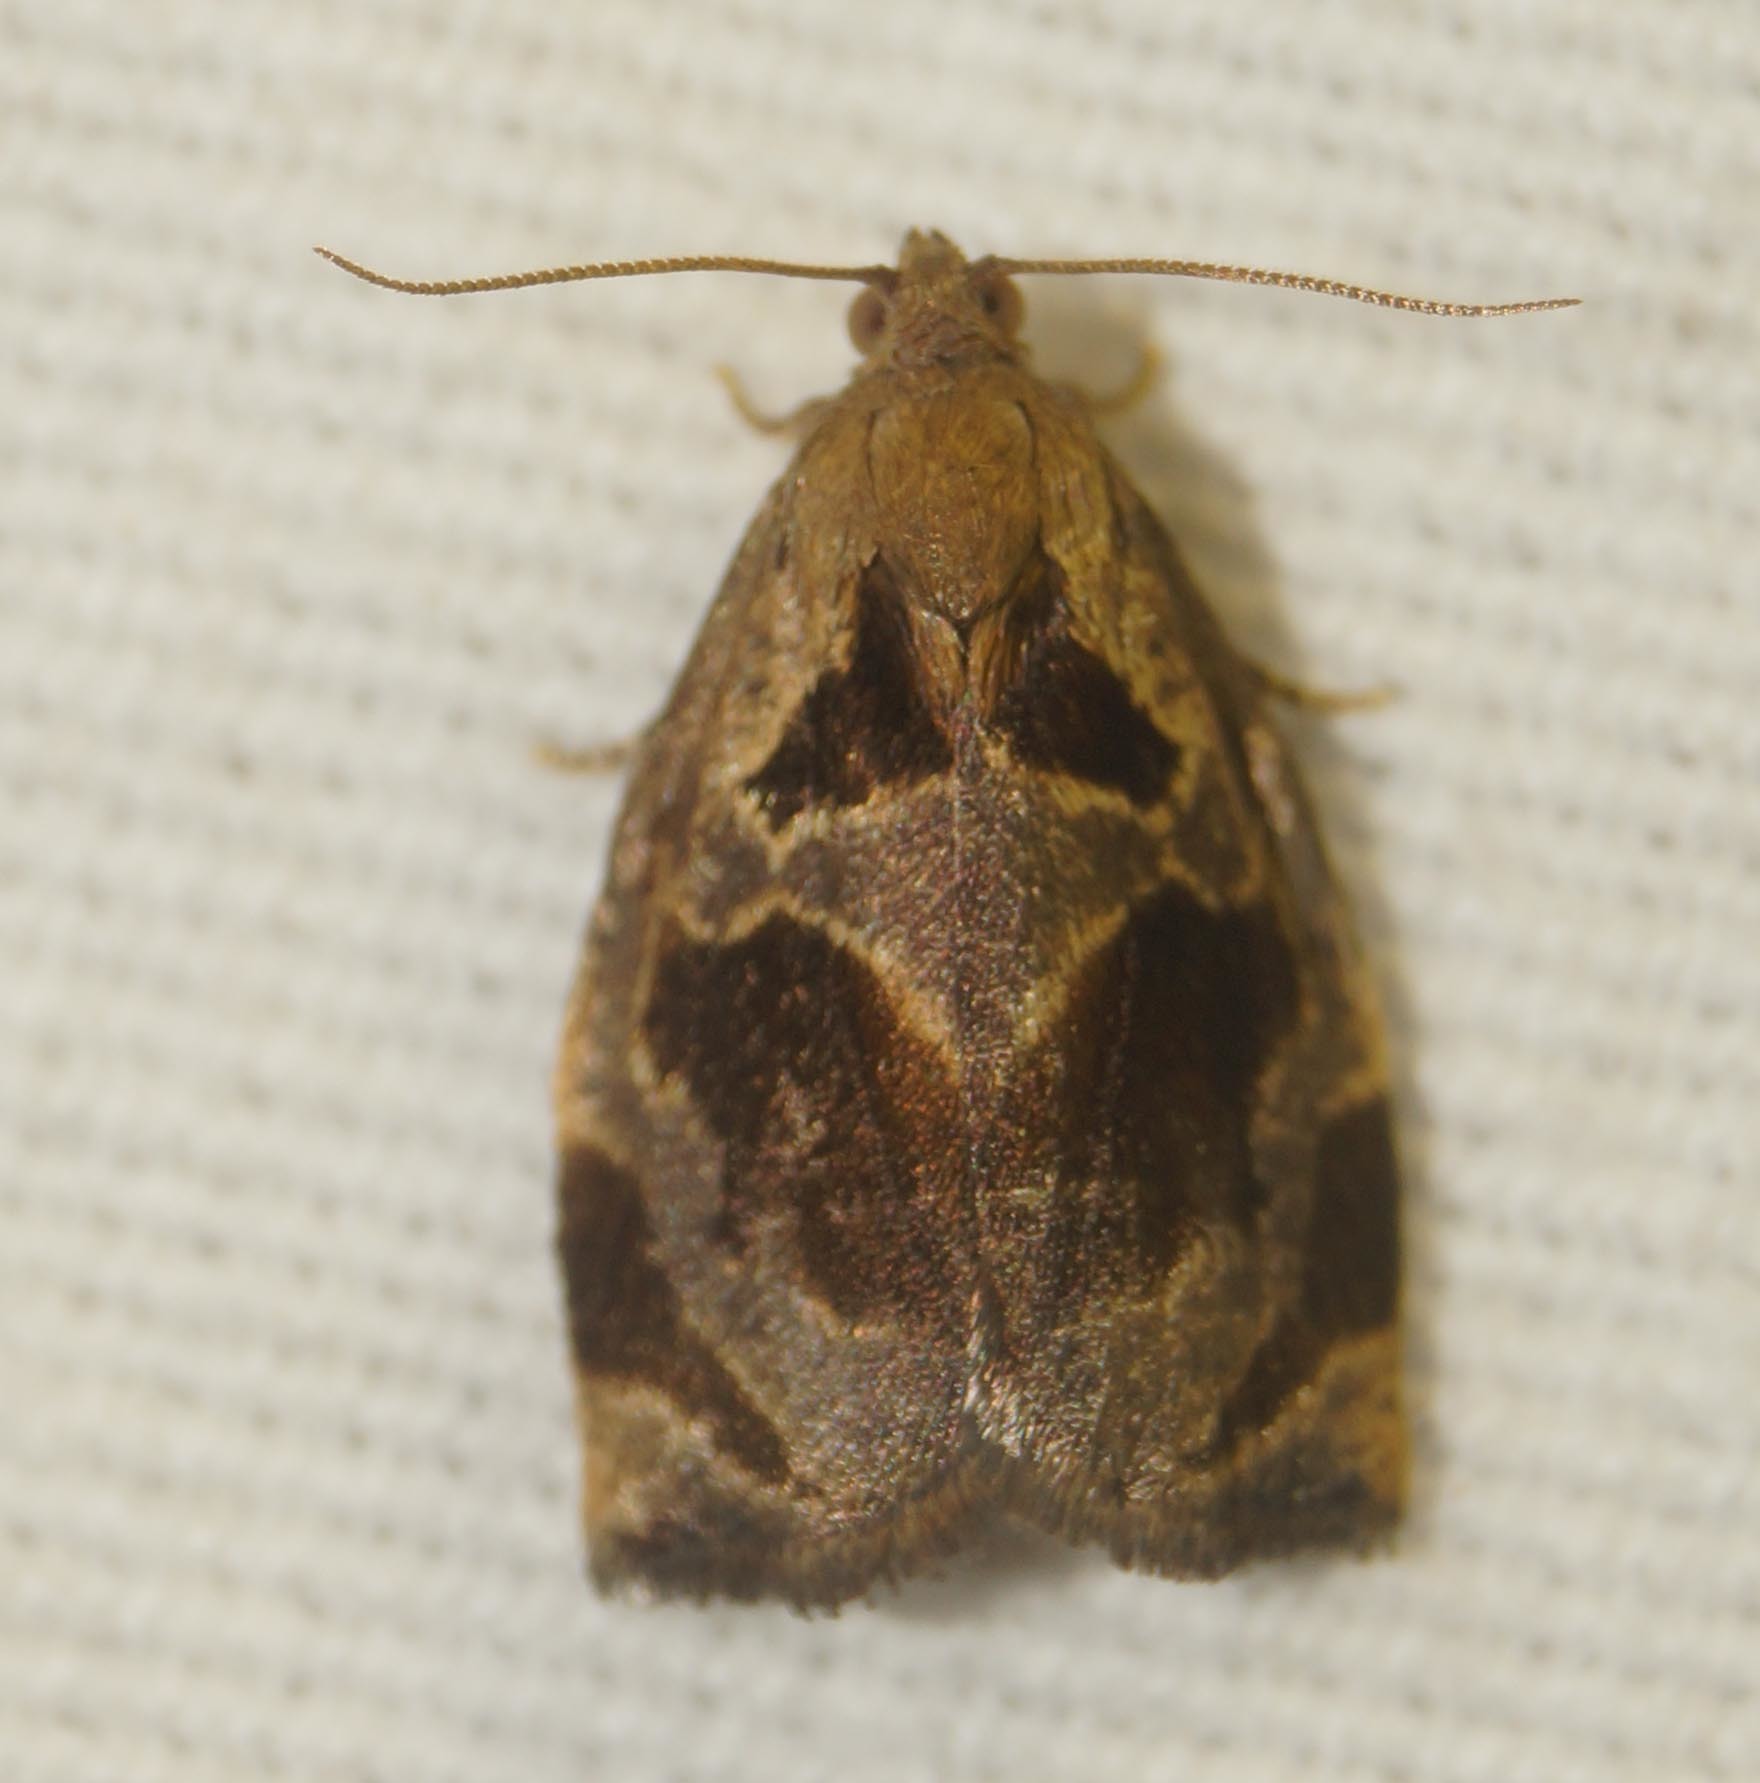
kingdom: Animalia
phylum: Arthropoda
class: Insecta
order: Lepidoptera
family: Tortricidae
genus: Archips
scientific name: Archips crataegana
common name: Brown oak tortrix
